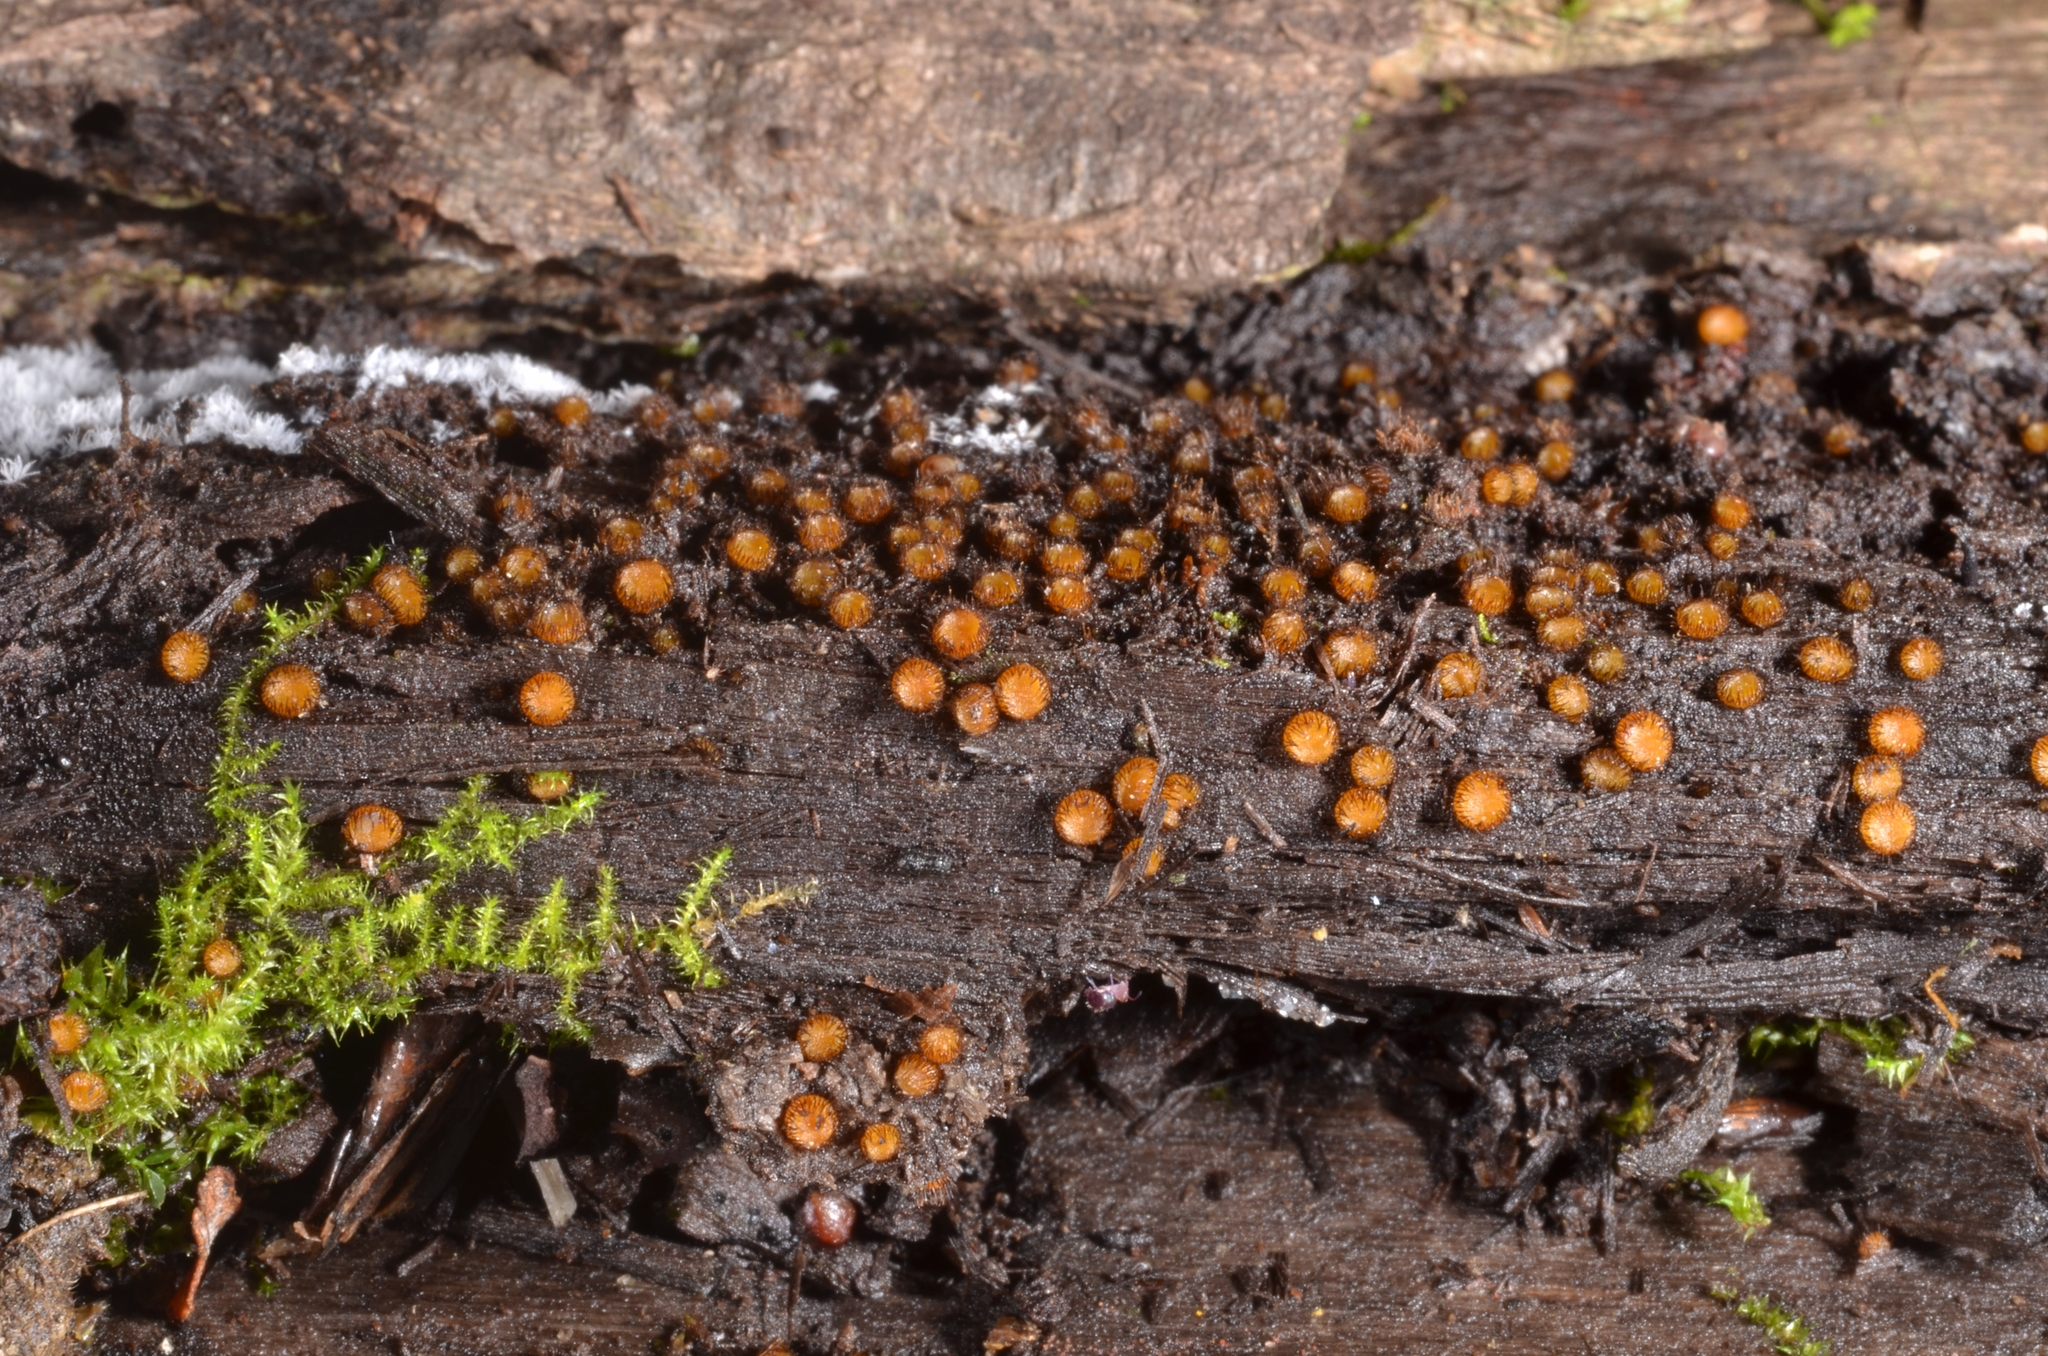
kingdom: Fungi
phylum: Ascomycota
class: Pezizomycetes
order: Pezizales
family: Pyronemataceae
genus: Scutellinia
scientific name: Scutellinia setosa
